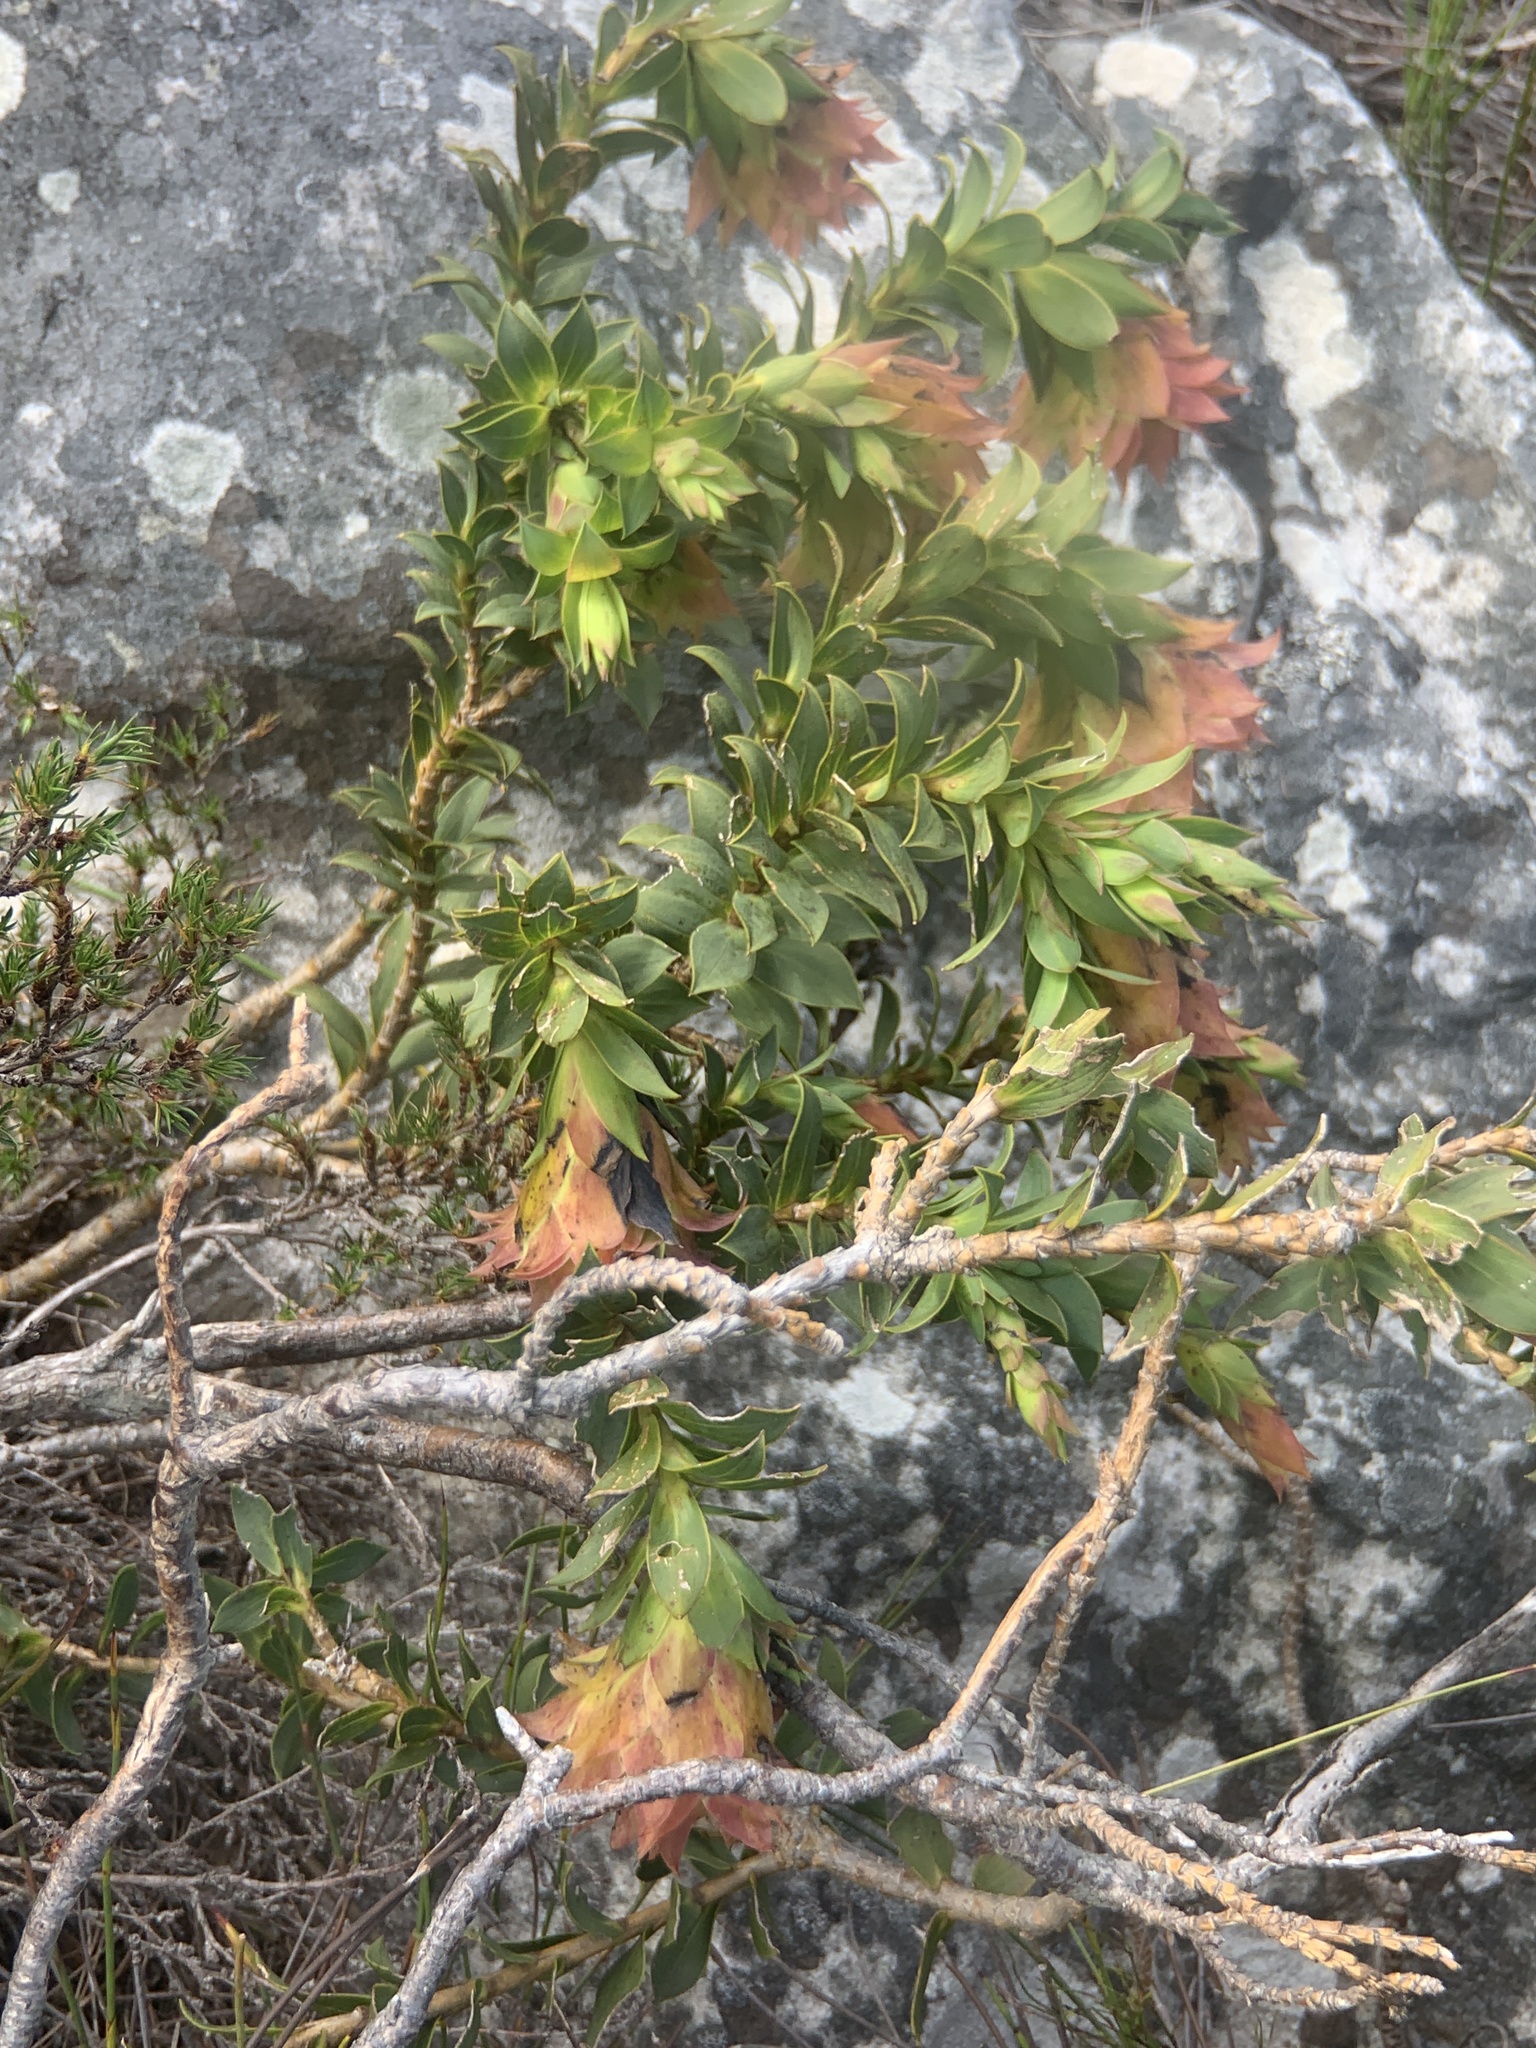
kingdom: Plantae
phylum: Tracheophyta
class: Magnoliopsida
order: Fabales
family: Fabaceae
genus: Liparia
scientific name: Liparia splendens
